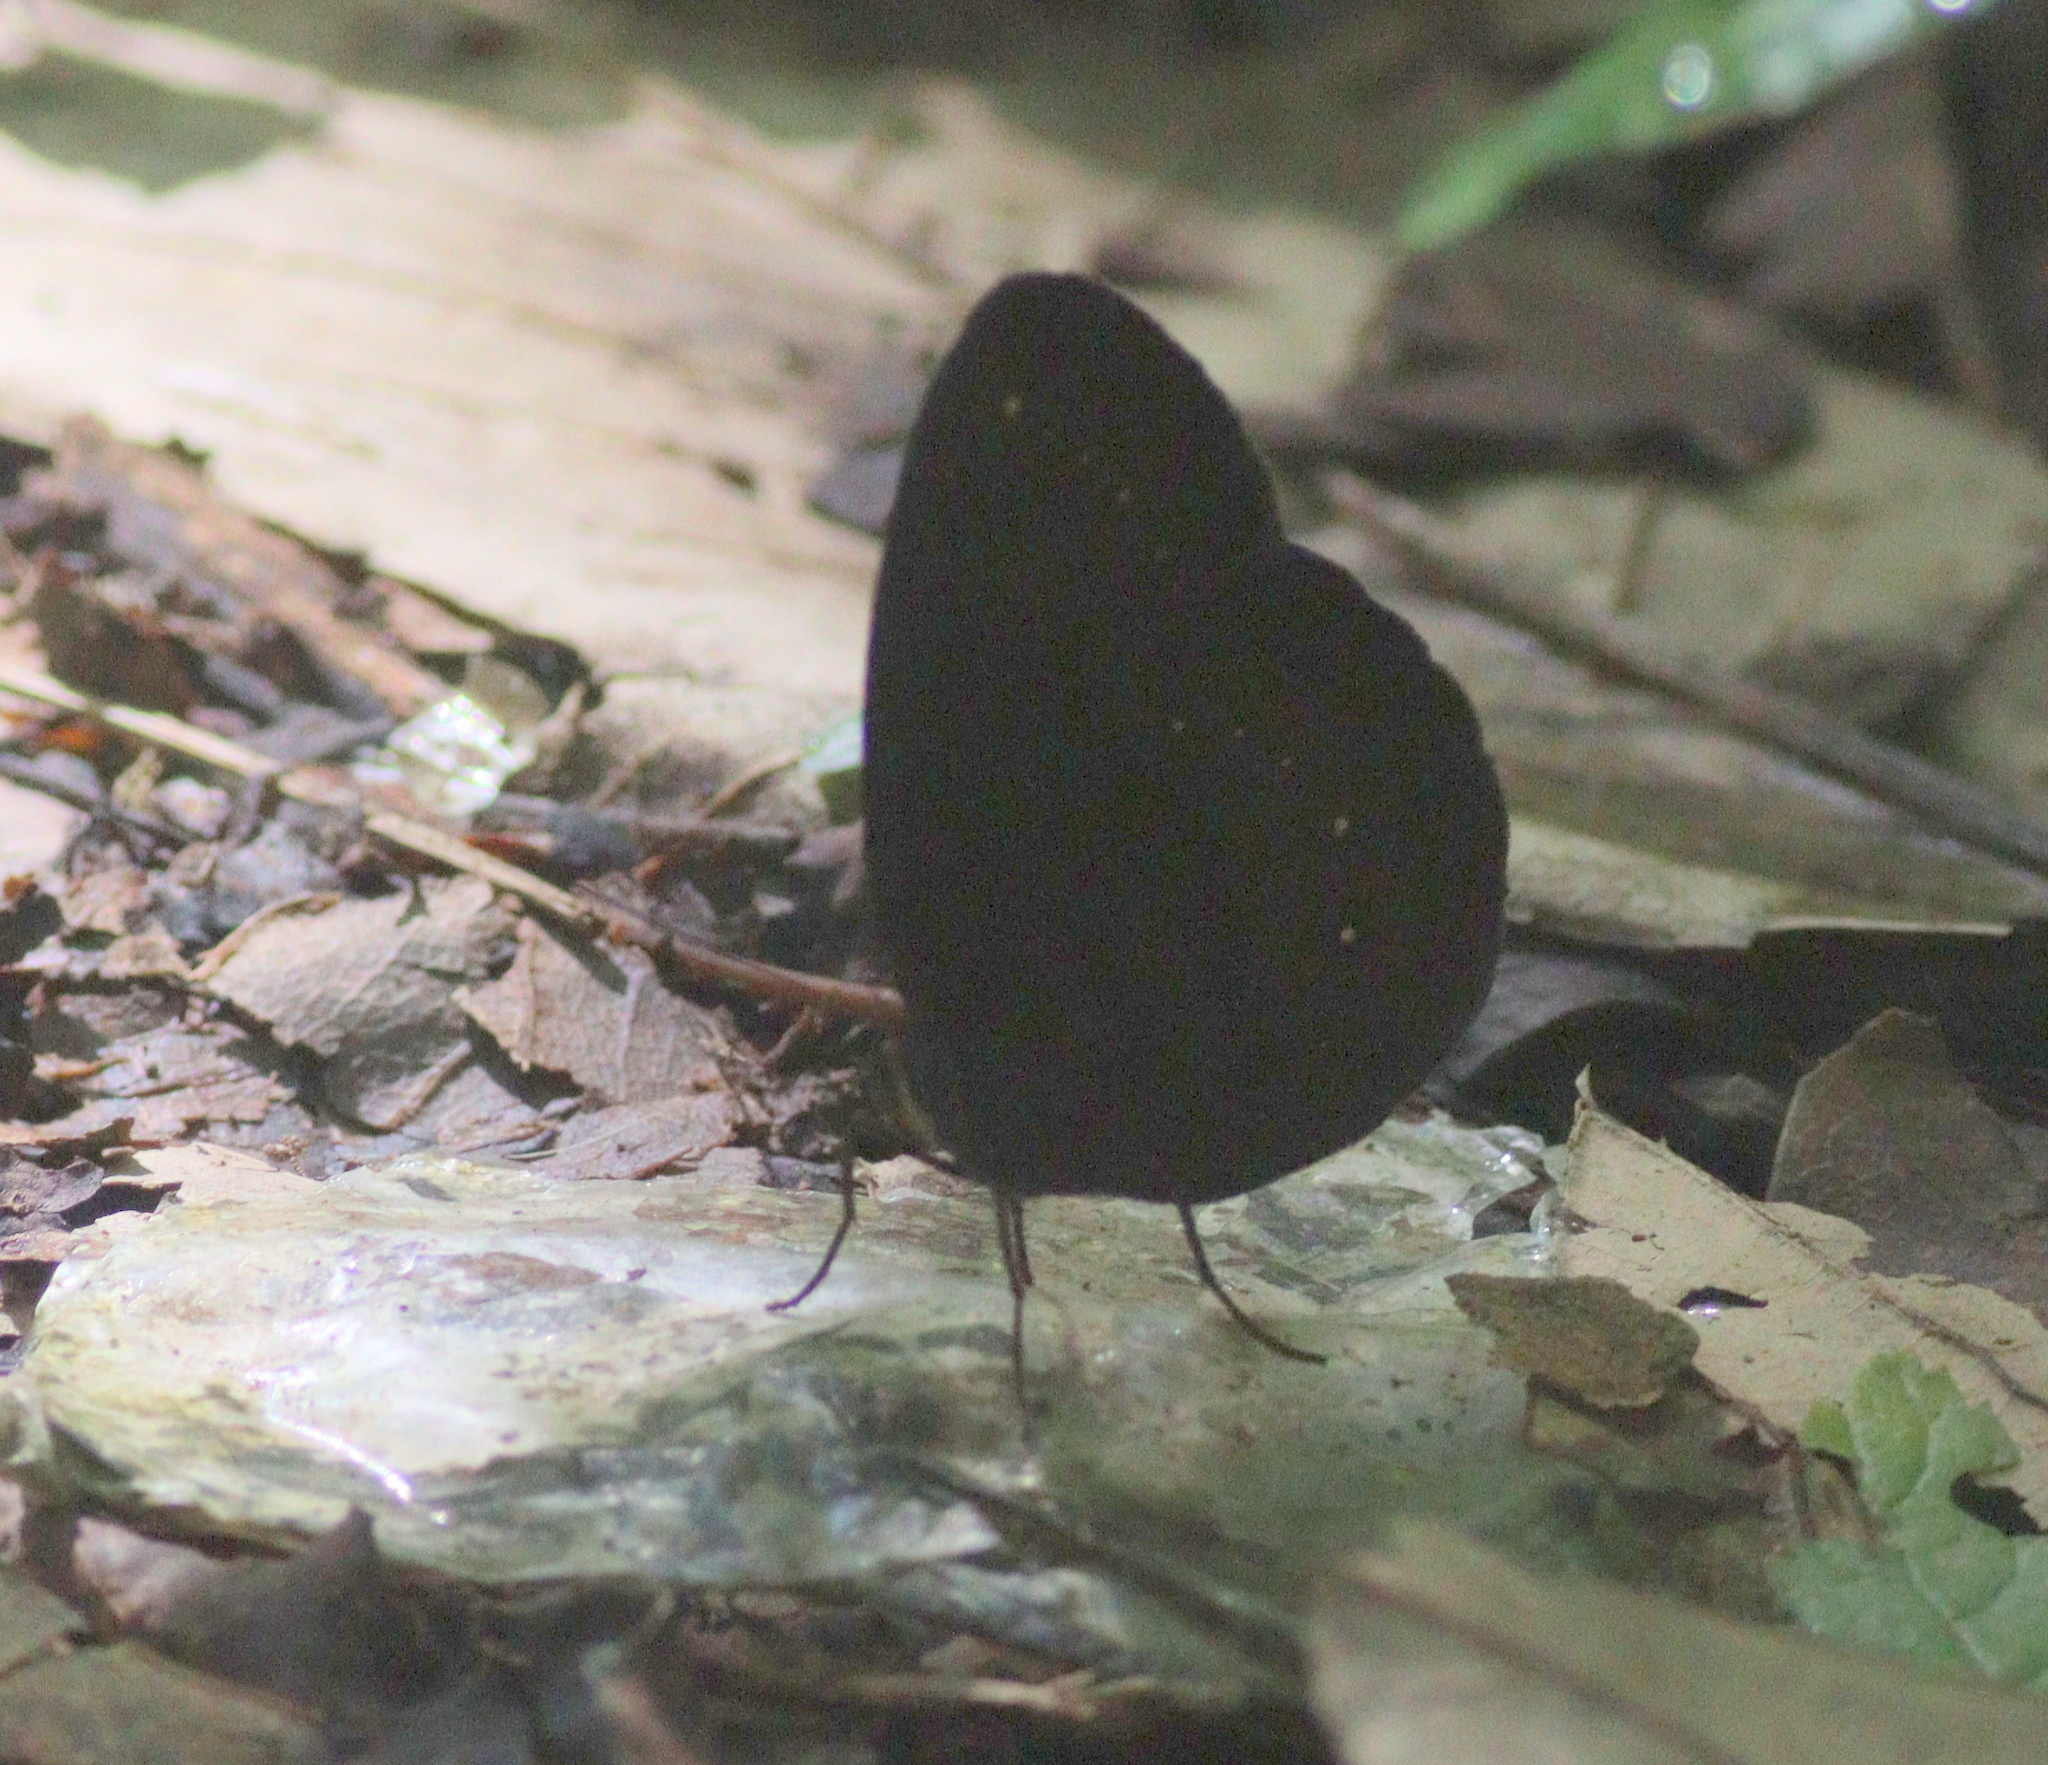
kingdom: Animalia
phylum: Arthropoda
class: Insecta
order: Lepidoptera
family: Nymphalidae
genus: Faunis
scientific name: Faunis canens
